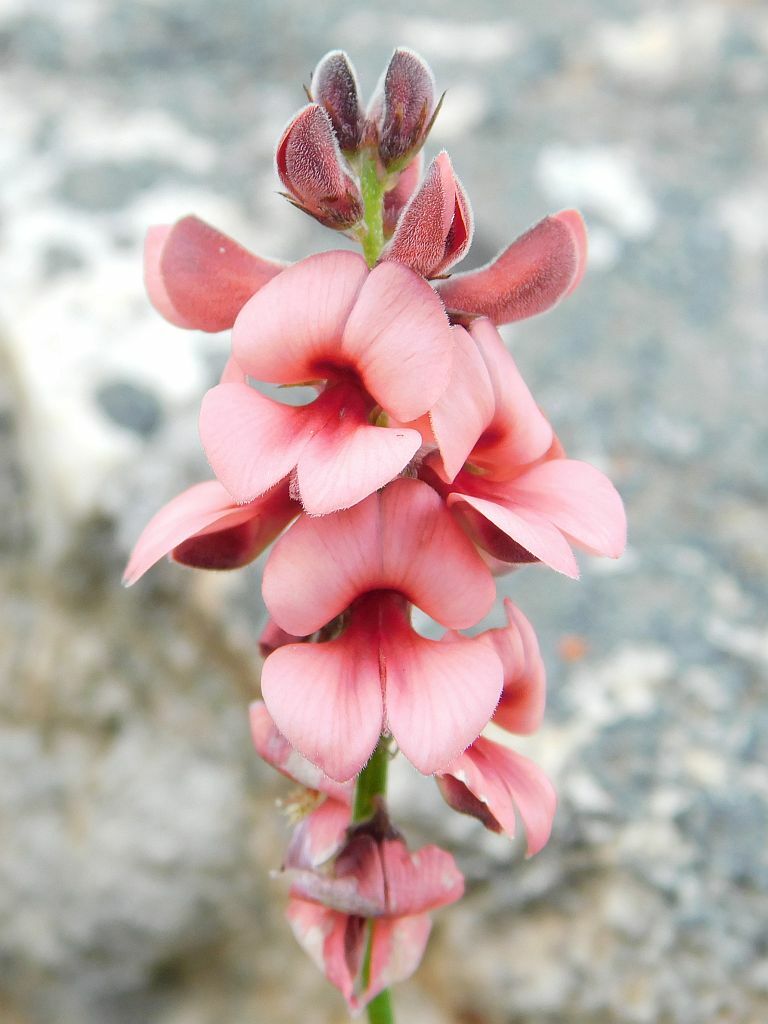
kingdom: Plantae
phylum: Tracheophyta
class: Magnoliopsida
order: Fabales
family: Fabaceae
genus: Indigofera
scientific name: Indigofera heterophylla
